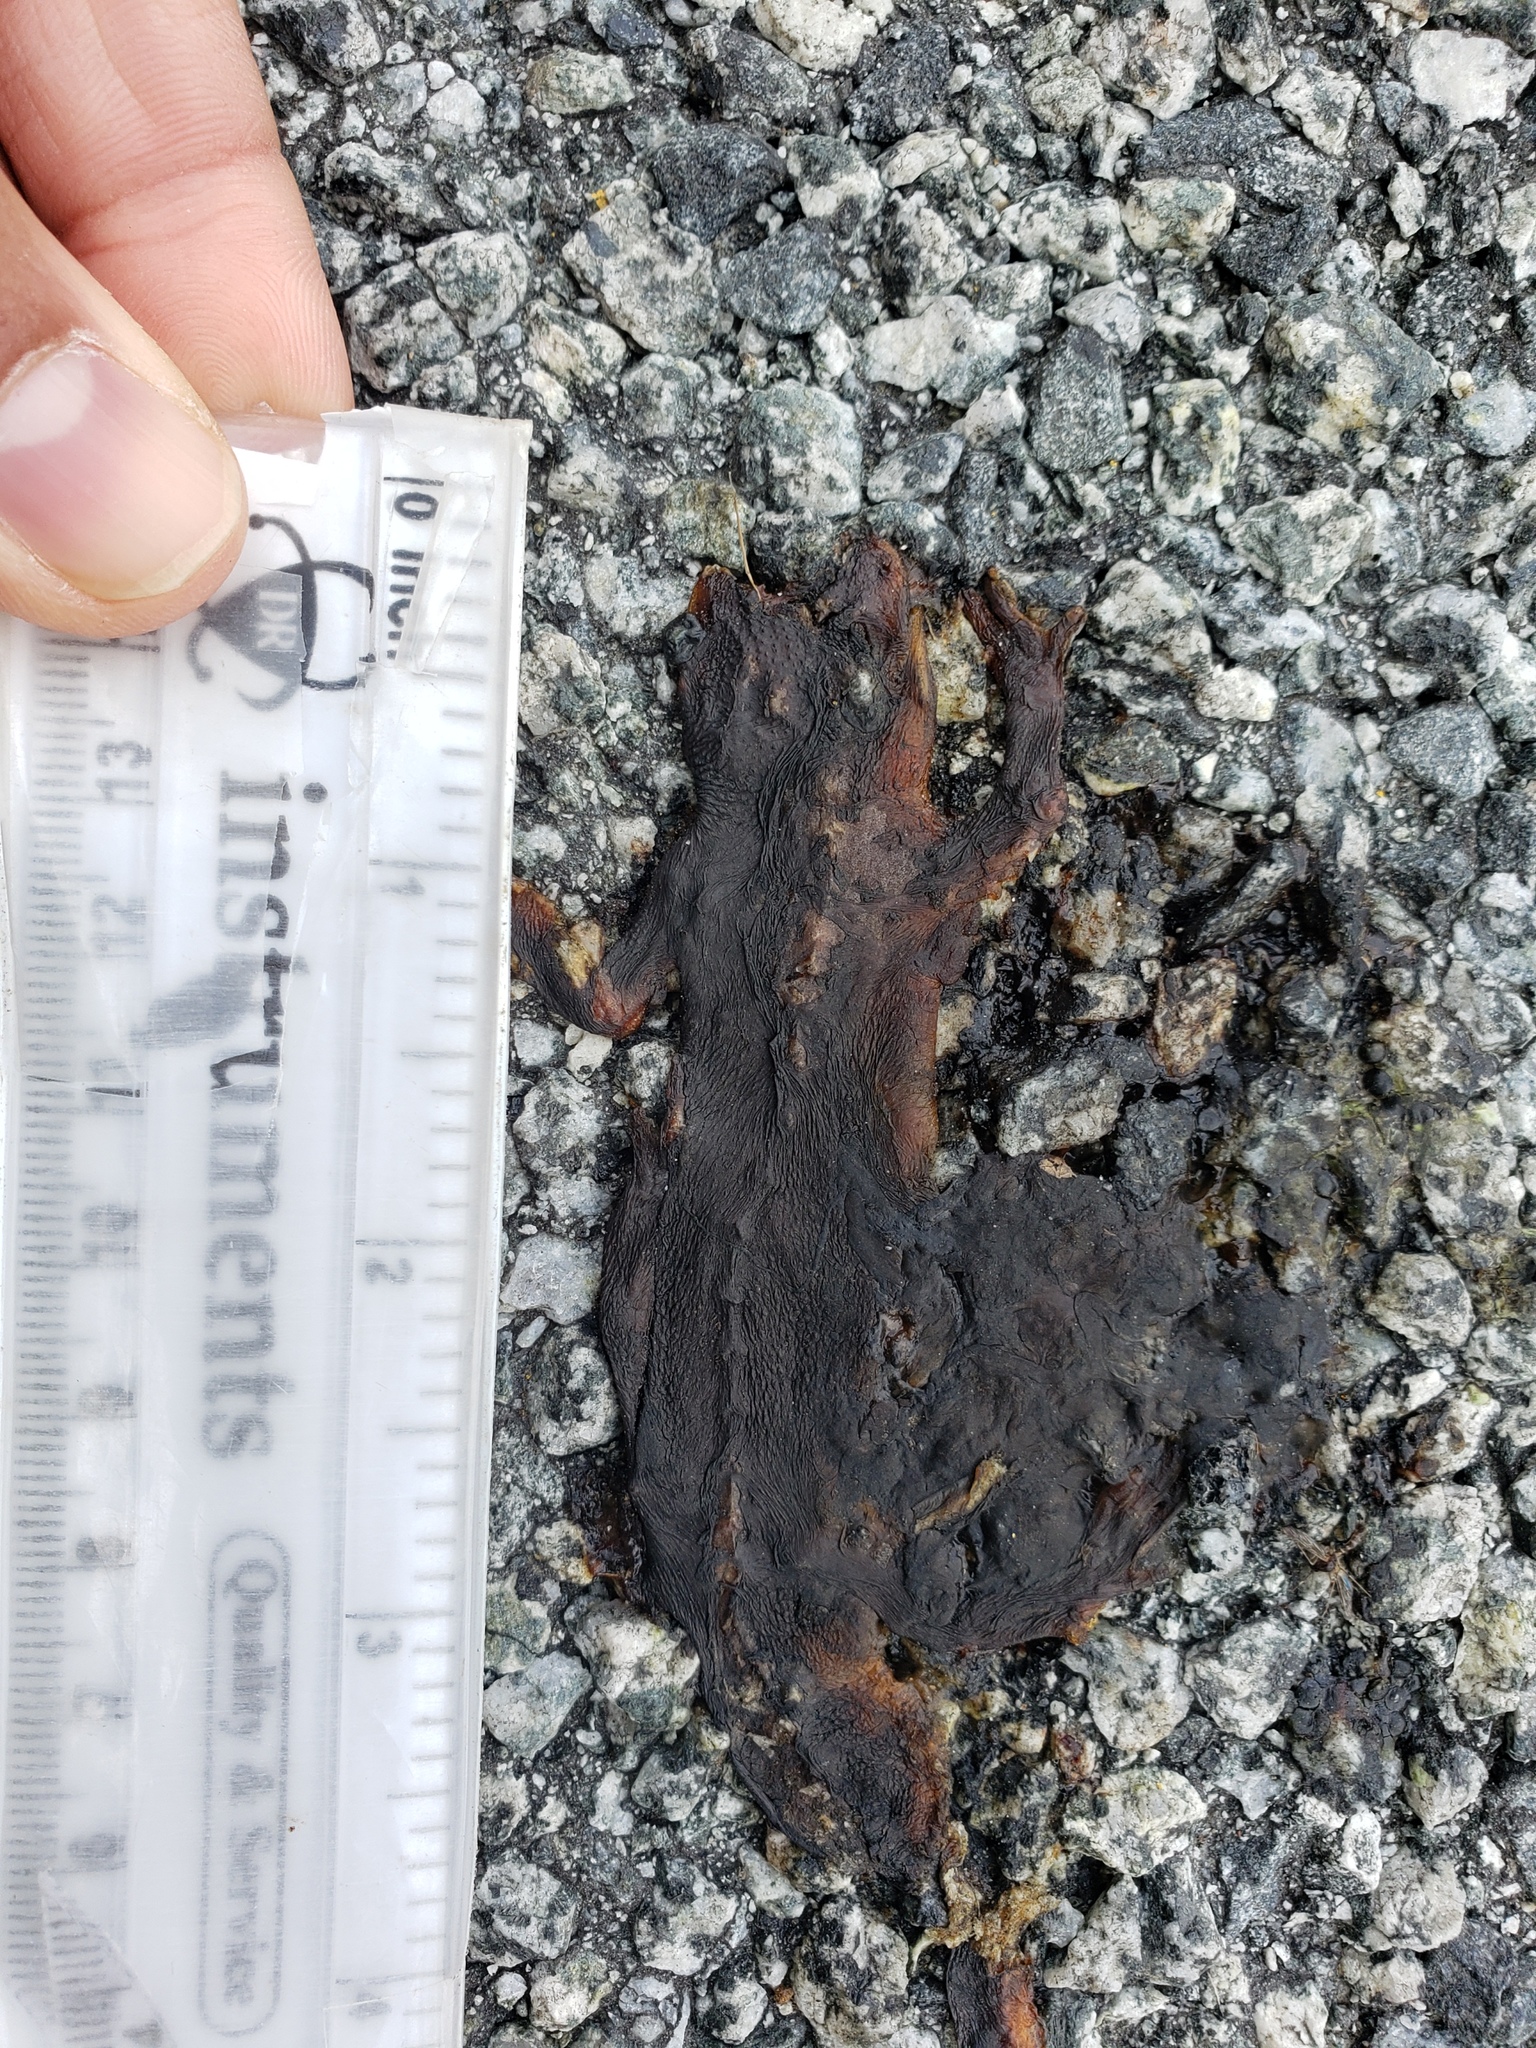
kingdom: Animalia
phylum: Chordata
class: Amphibia
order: Caudata
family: Salamandridae
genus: Taricha
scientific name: Taricha
